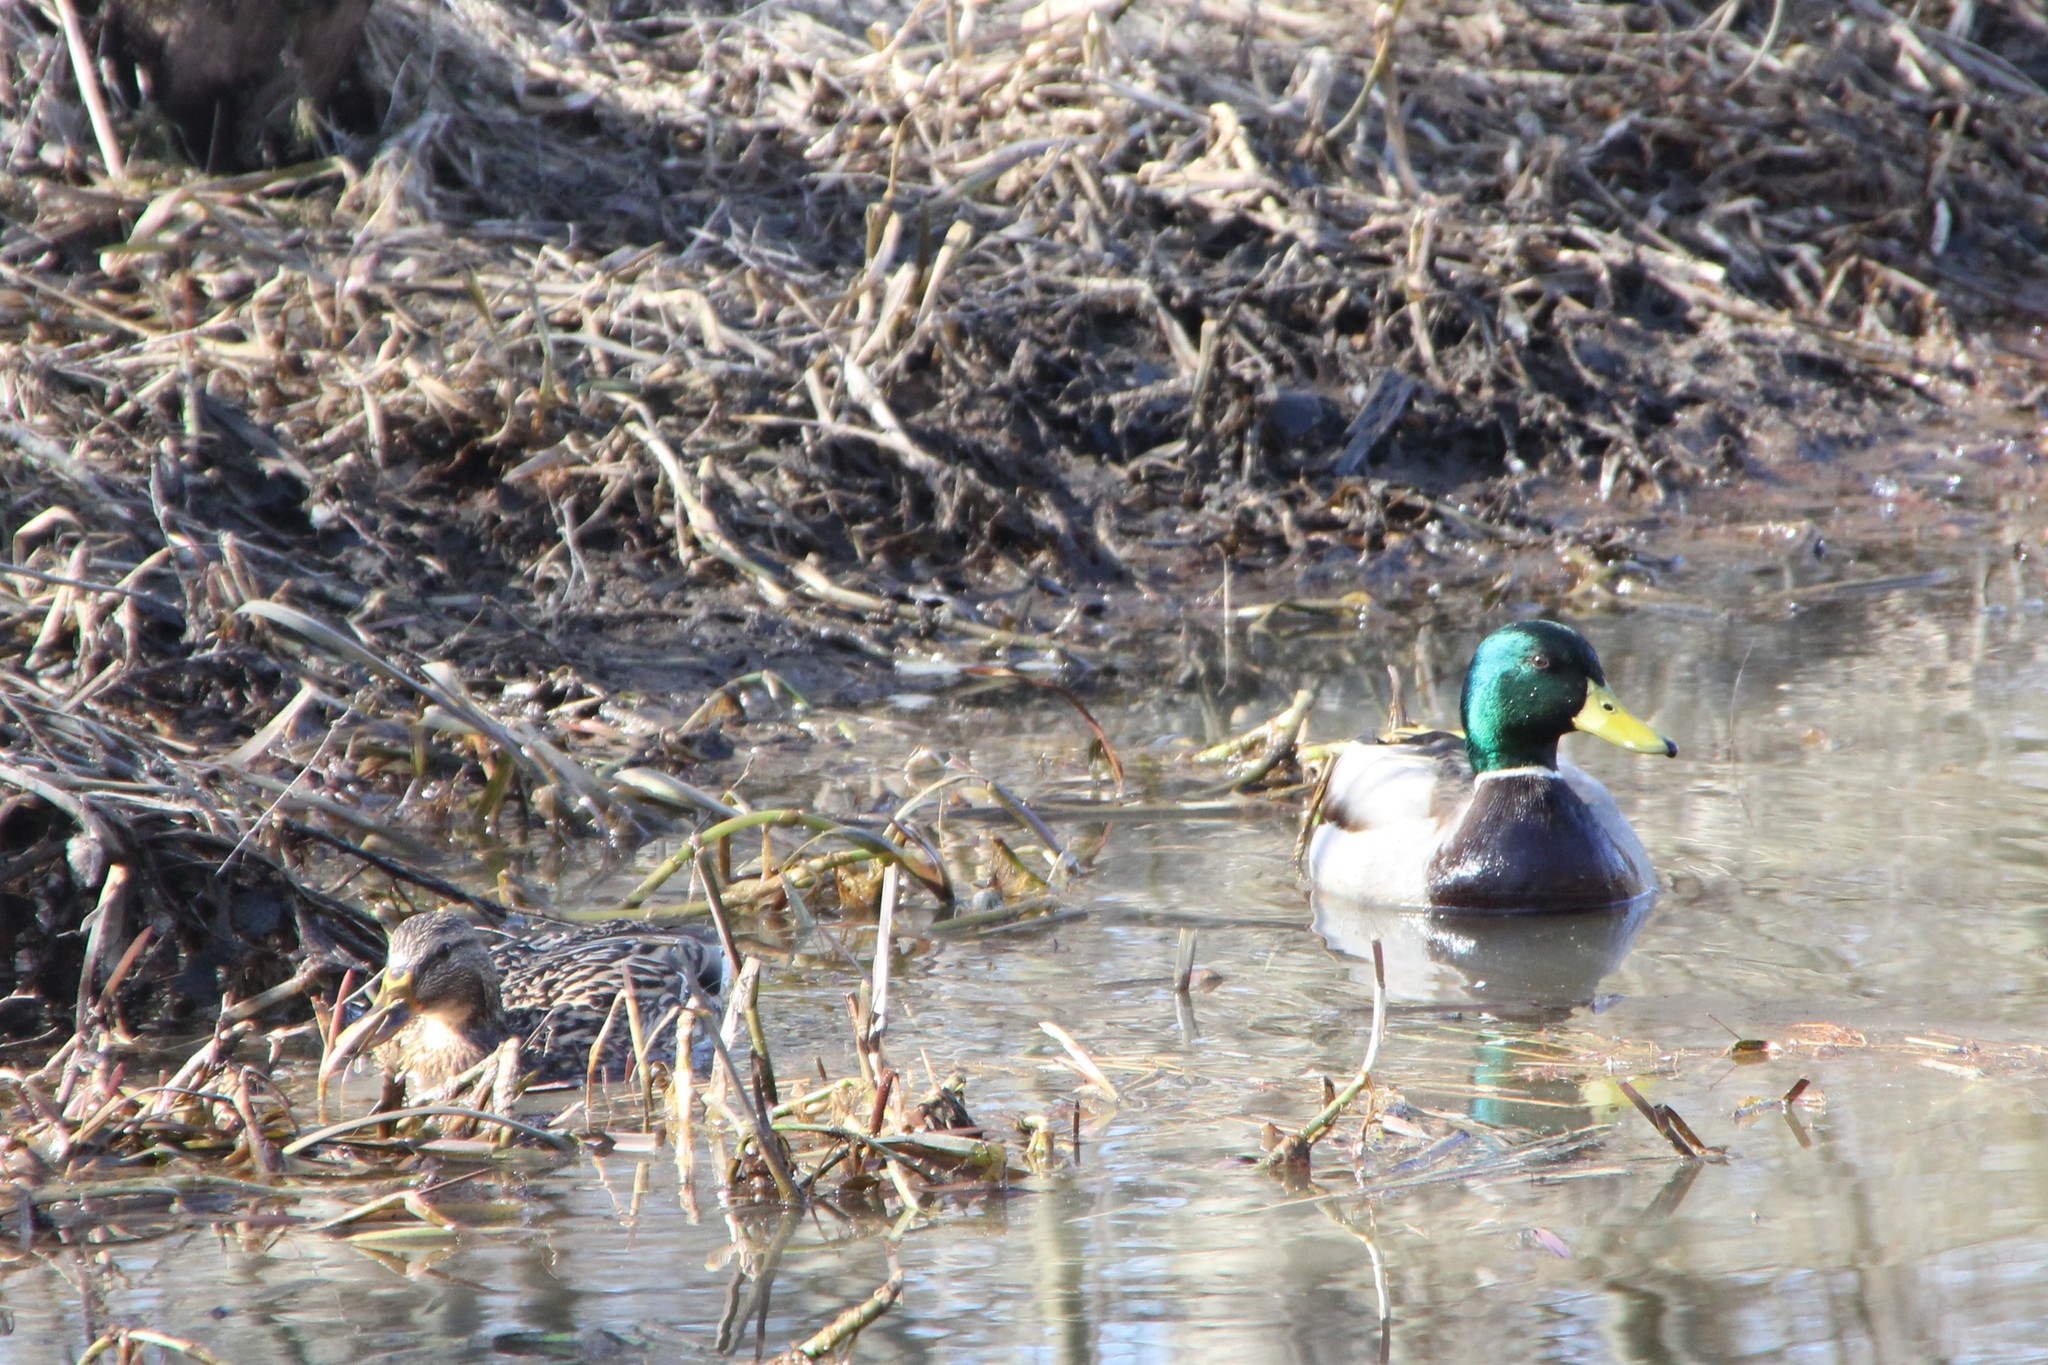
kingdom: Animalia
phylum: Chordata
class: Aves
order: Anseriformes
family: Anatidae
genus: Anas
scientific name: Anas platyrhynchos
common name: Mallard
